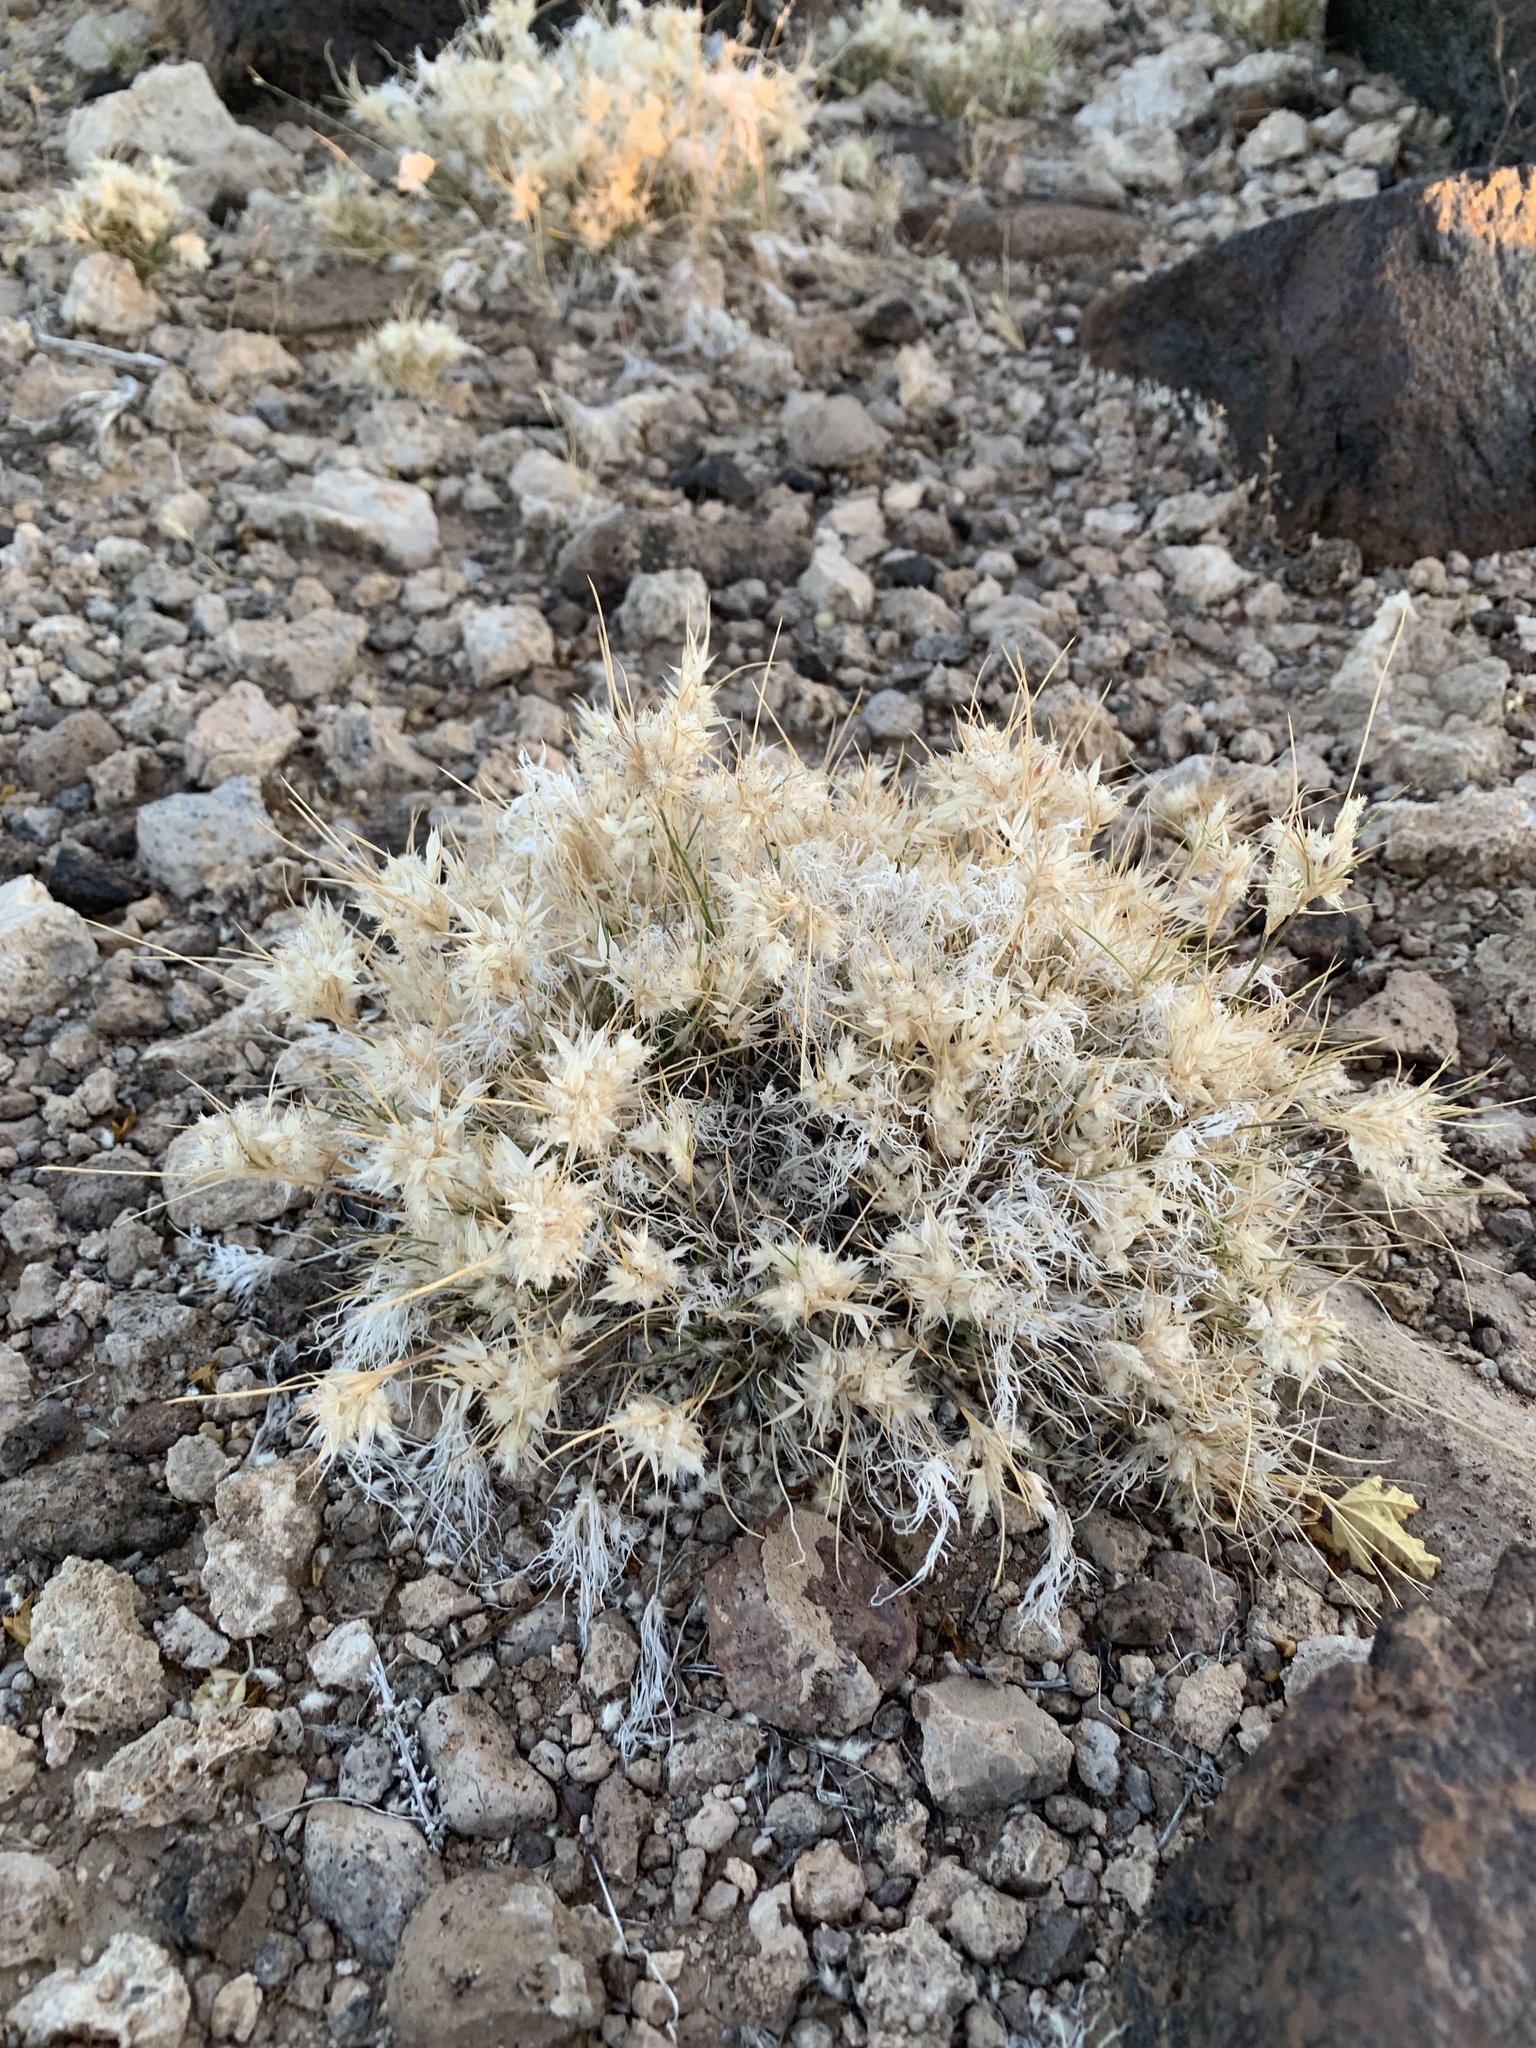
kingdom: Plantae
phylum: Tracheophyta
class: Liliopsida
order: Poales
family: Poaceae
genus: Dasyochloa
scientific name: Dasyochloa pulchella
